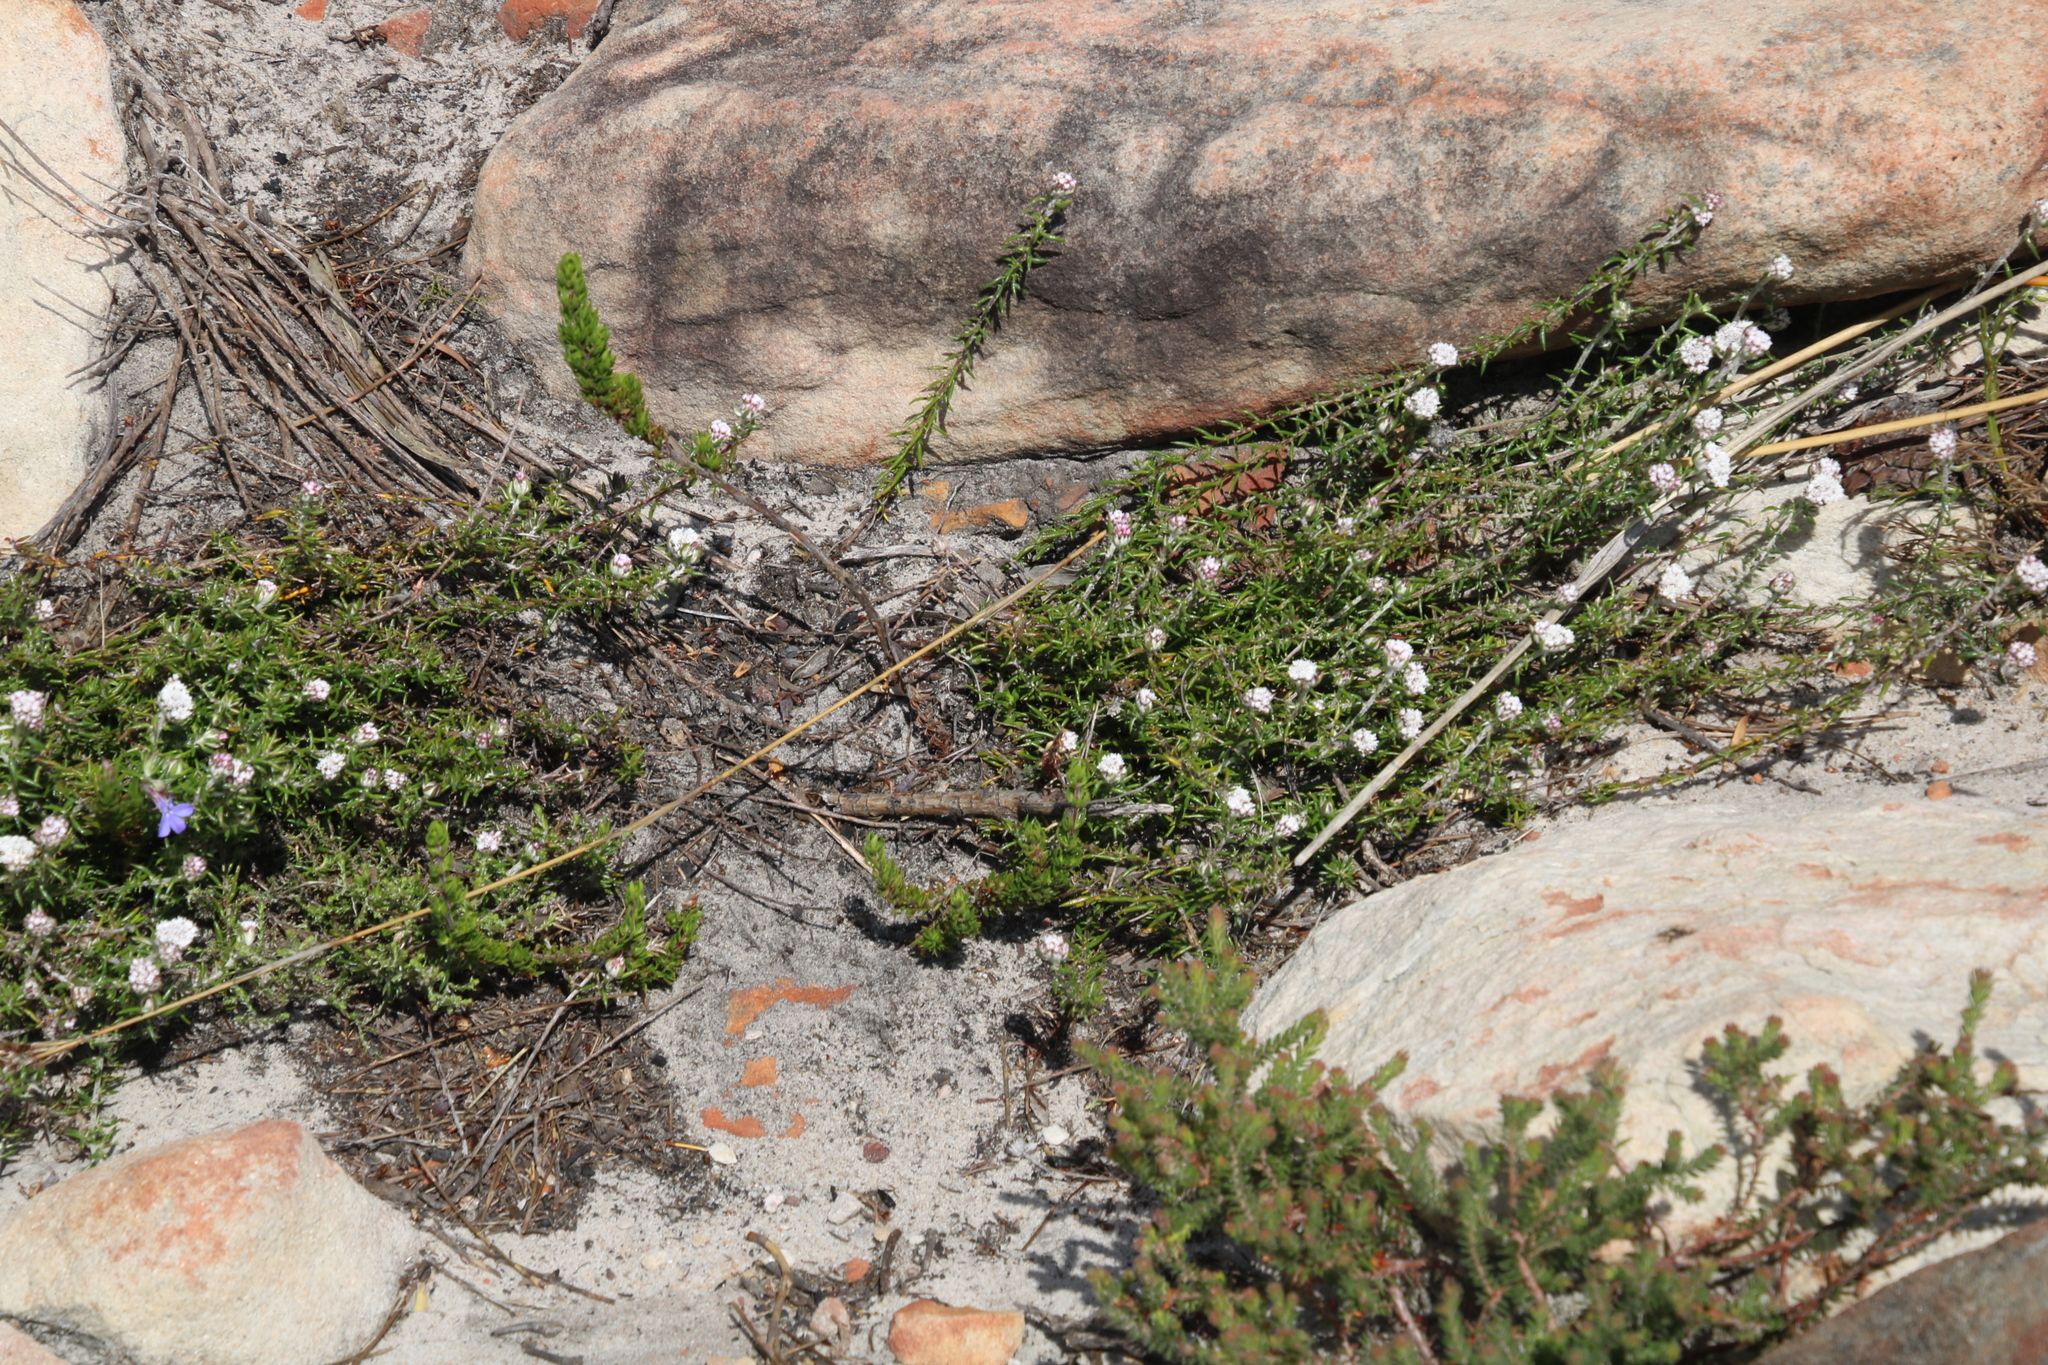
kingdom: Plantae
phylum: Tracheophyta
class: Magnoliopsida
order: Asterales
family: Asteraceae
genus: Metalasia
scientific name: Metalasia divergens
